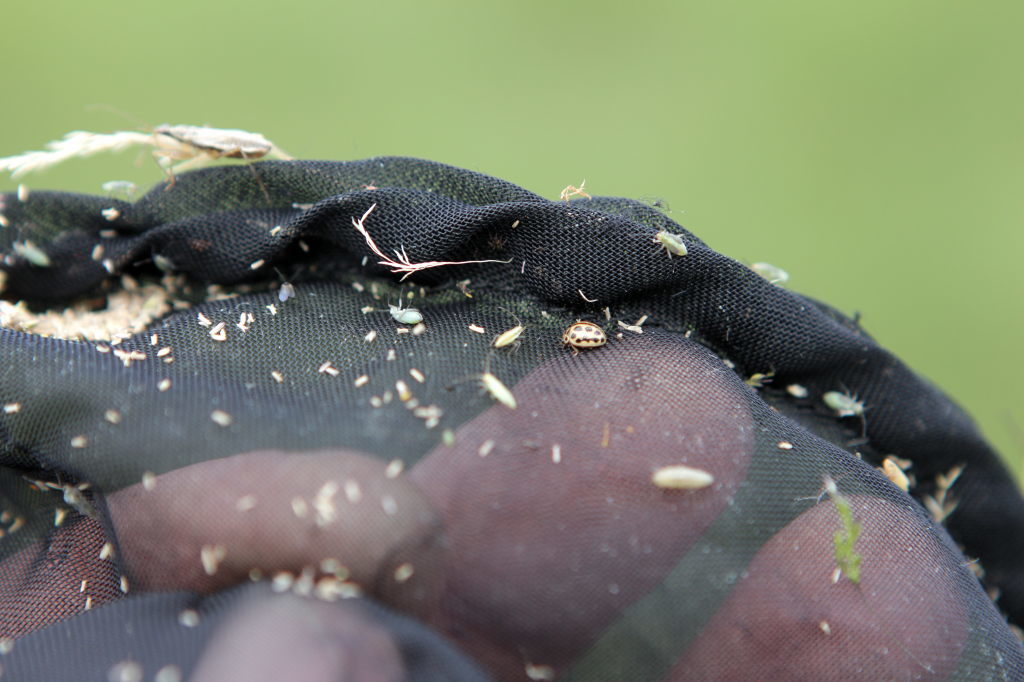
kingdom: Animalia
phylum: Arthropoda
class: Insecta
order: Coleoptera
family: Coccinellidae
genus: Tytthaspis
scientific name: Tytthaspis sedecimpunctata
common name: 16-spot ladybird
